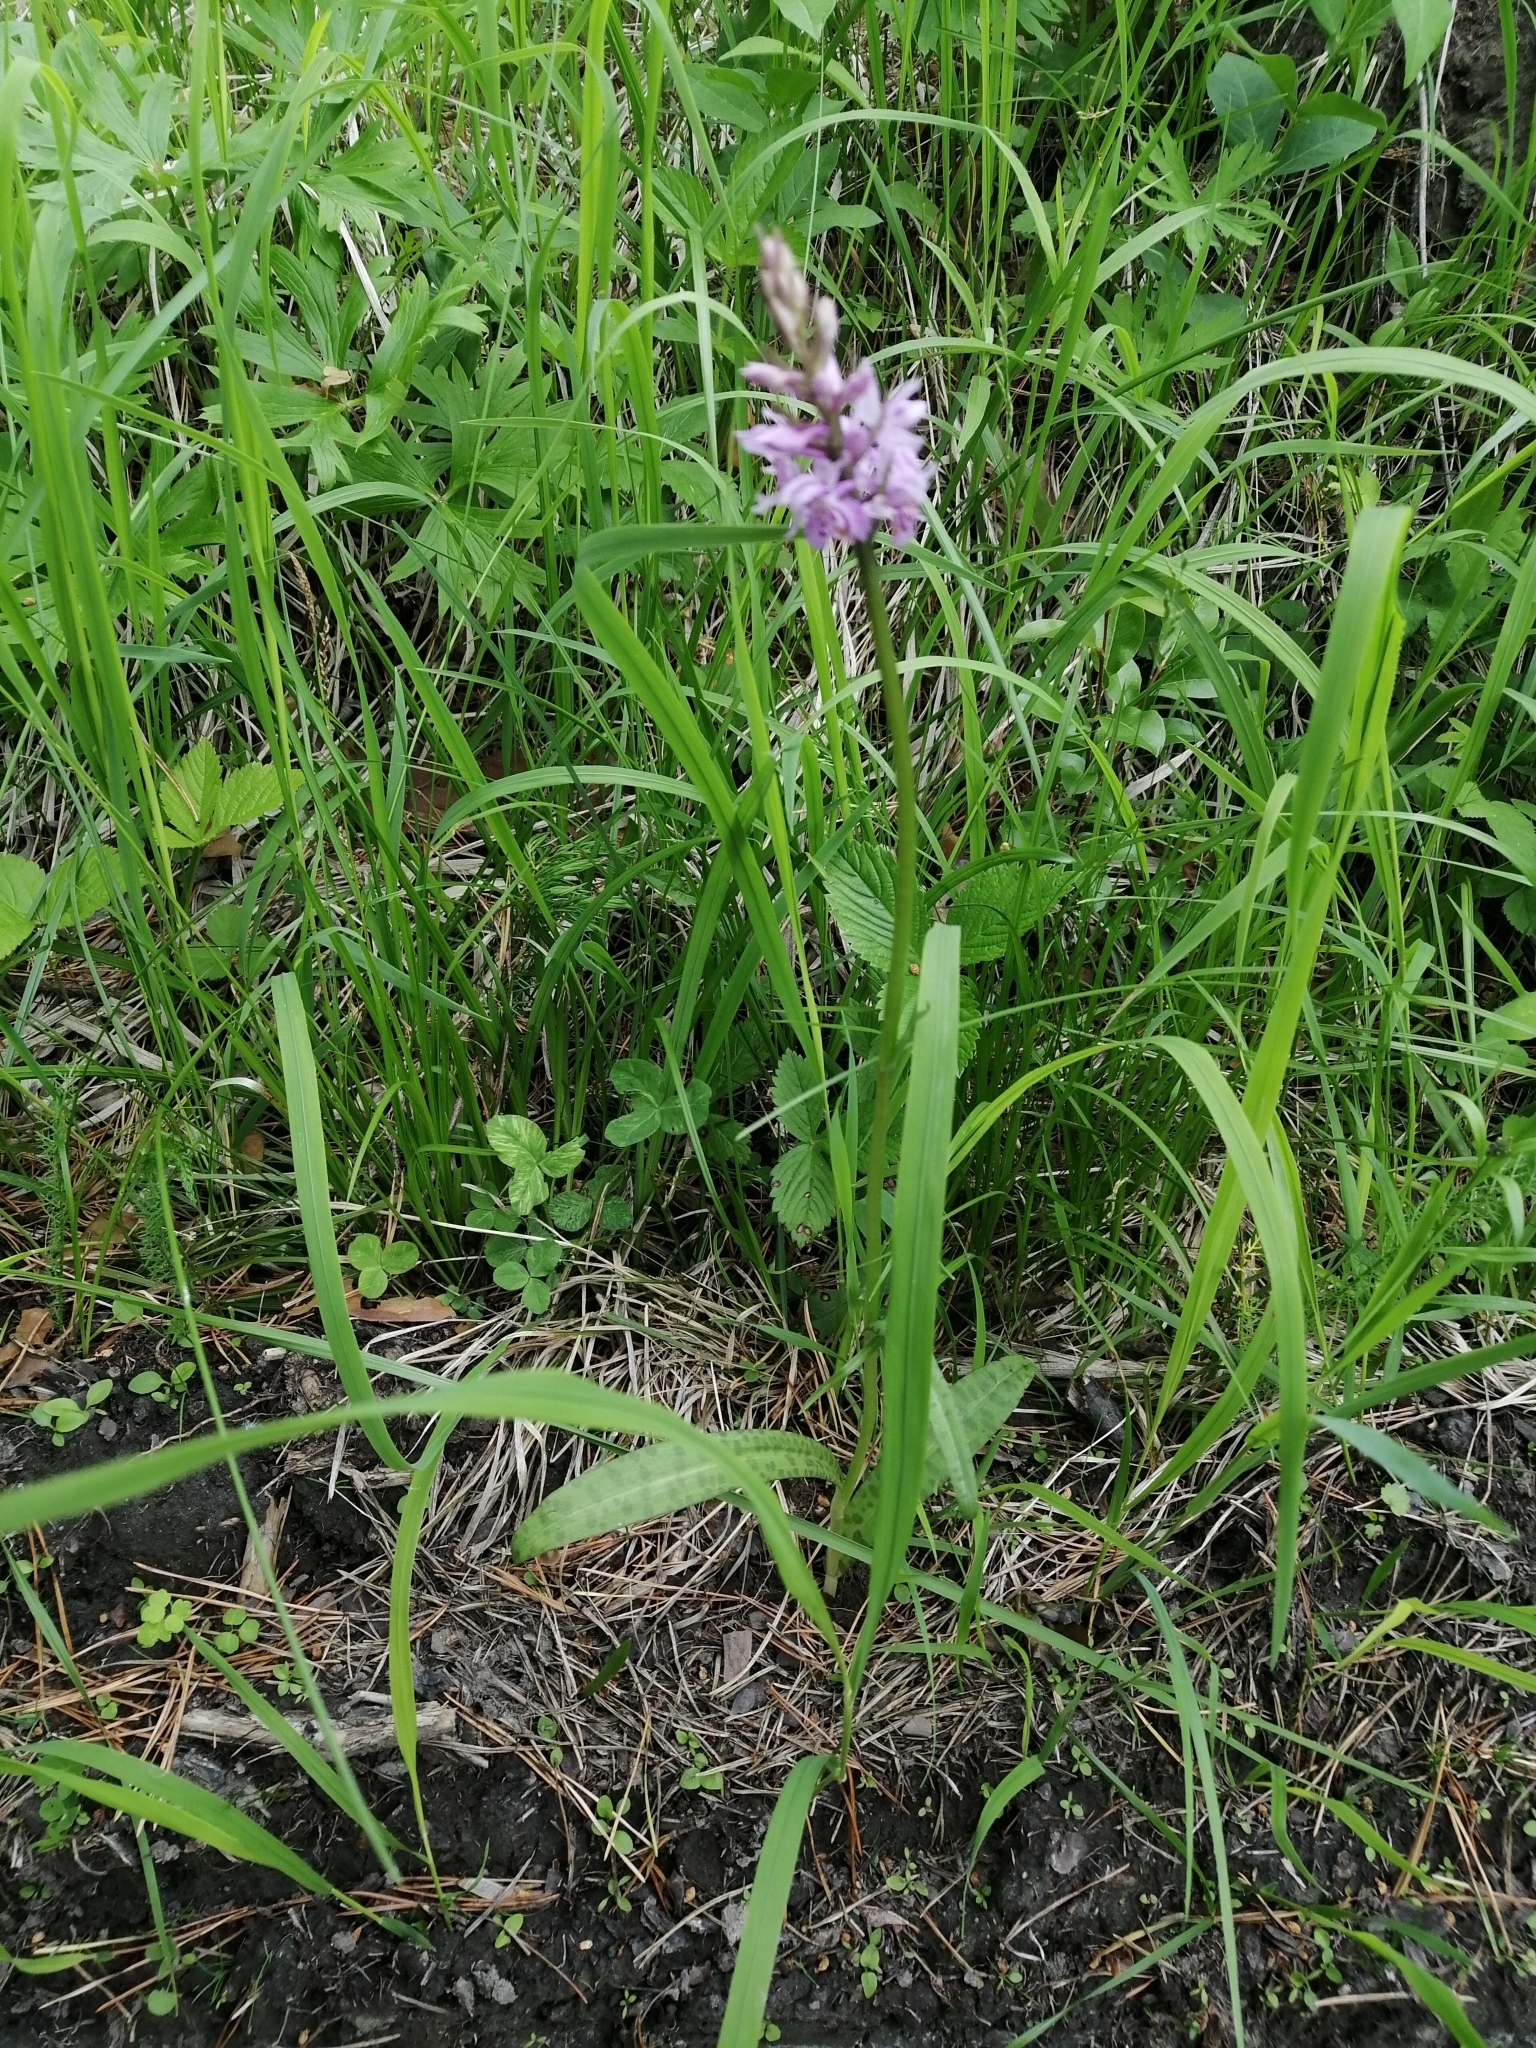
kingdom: Plantae
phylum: Tracheophyta
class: Liliopsida
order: Asparagales
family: Orchidaceae
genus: Dactylorhiza
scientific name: Dactylorhiza maculata
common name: Heath spotted-orchid
